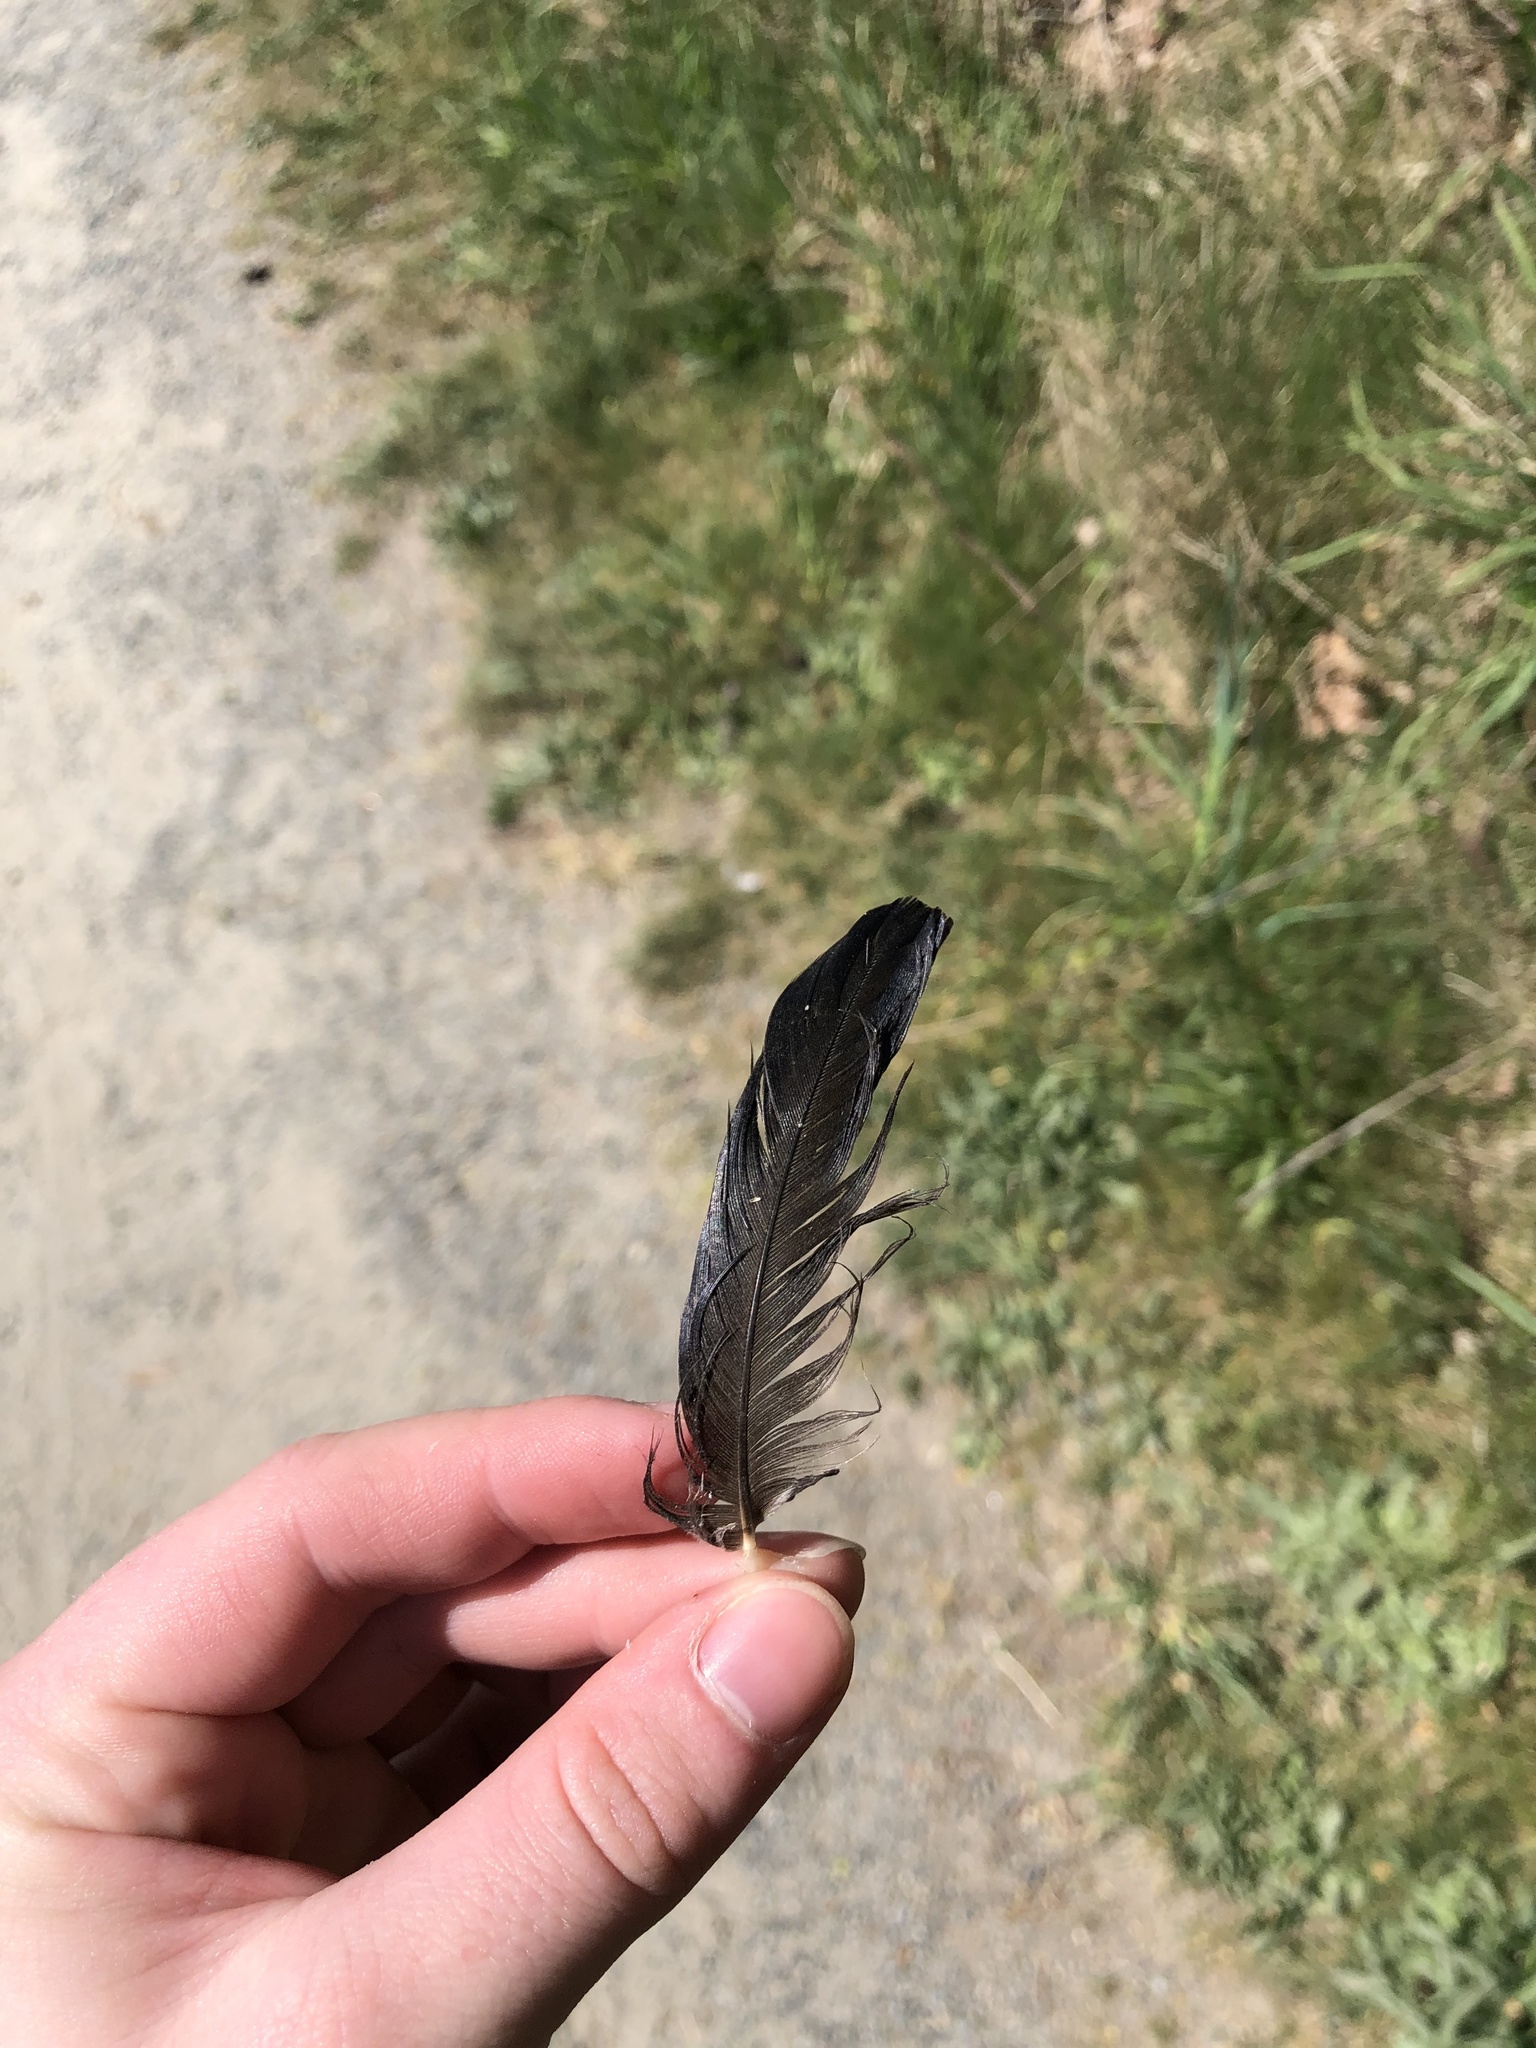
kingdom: Animalia
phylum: Chordata
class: Aves
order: Passeriformes
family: Corvidae
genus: Corvus
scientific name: Corvus brachyrhynchos
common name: American crow
